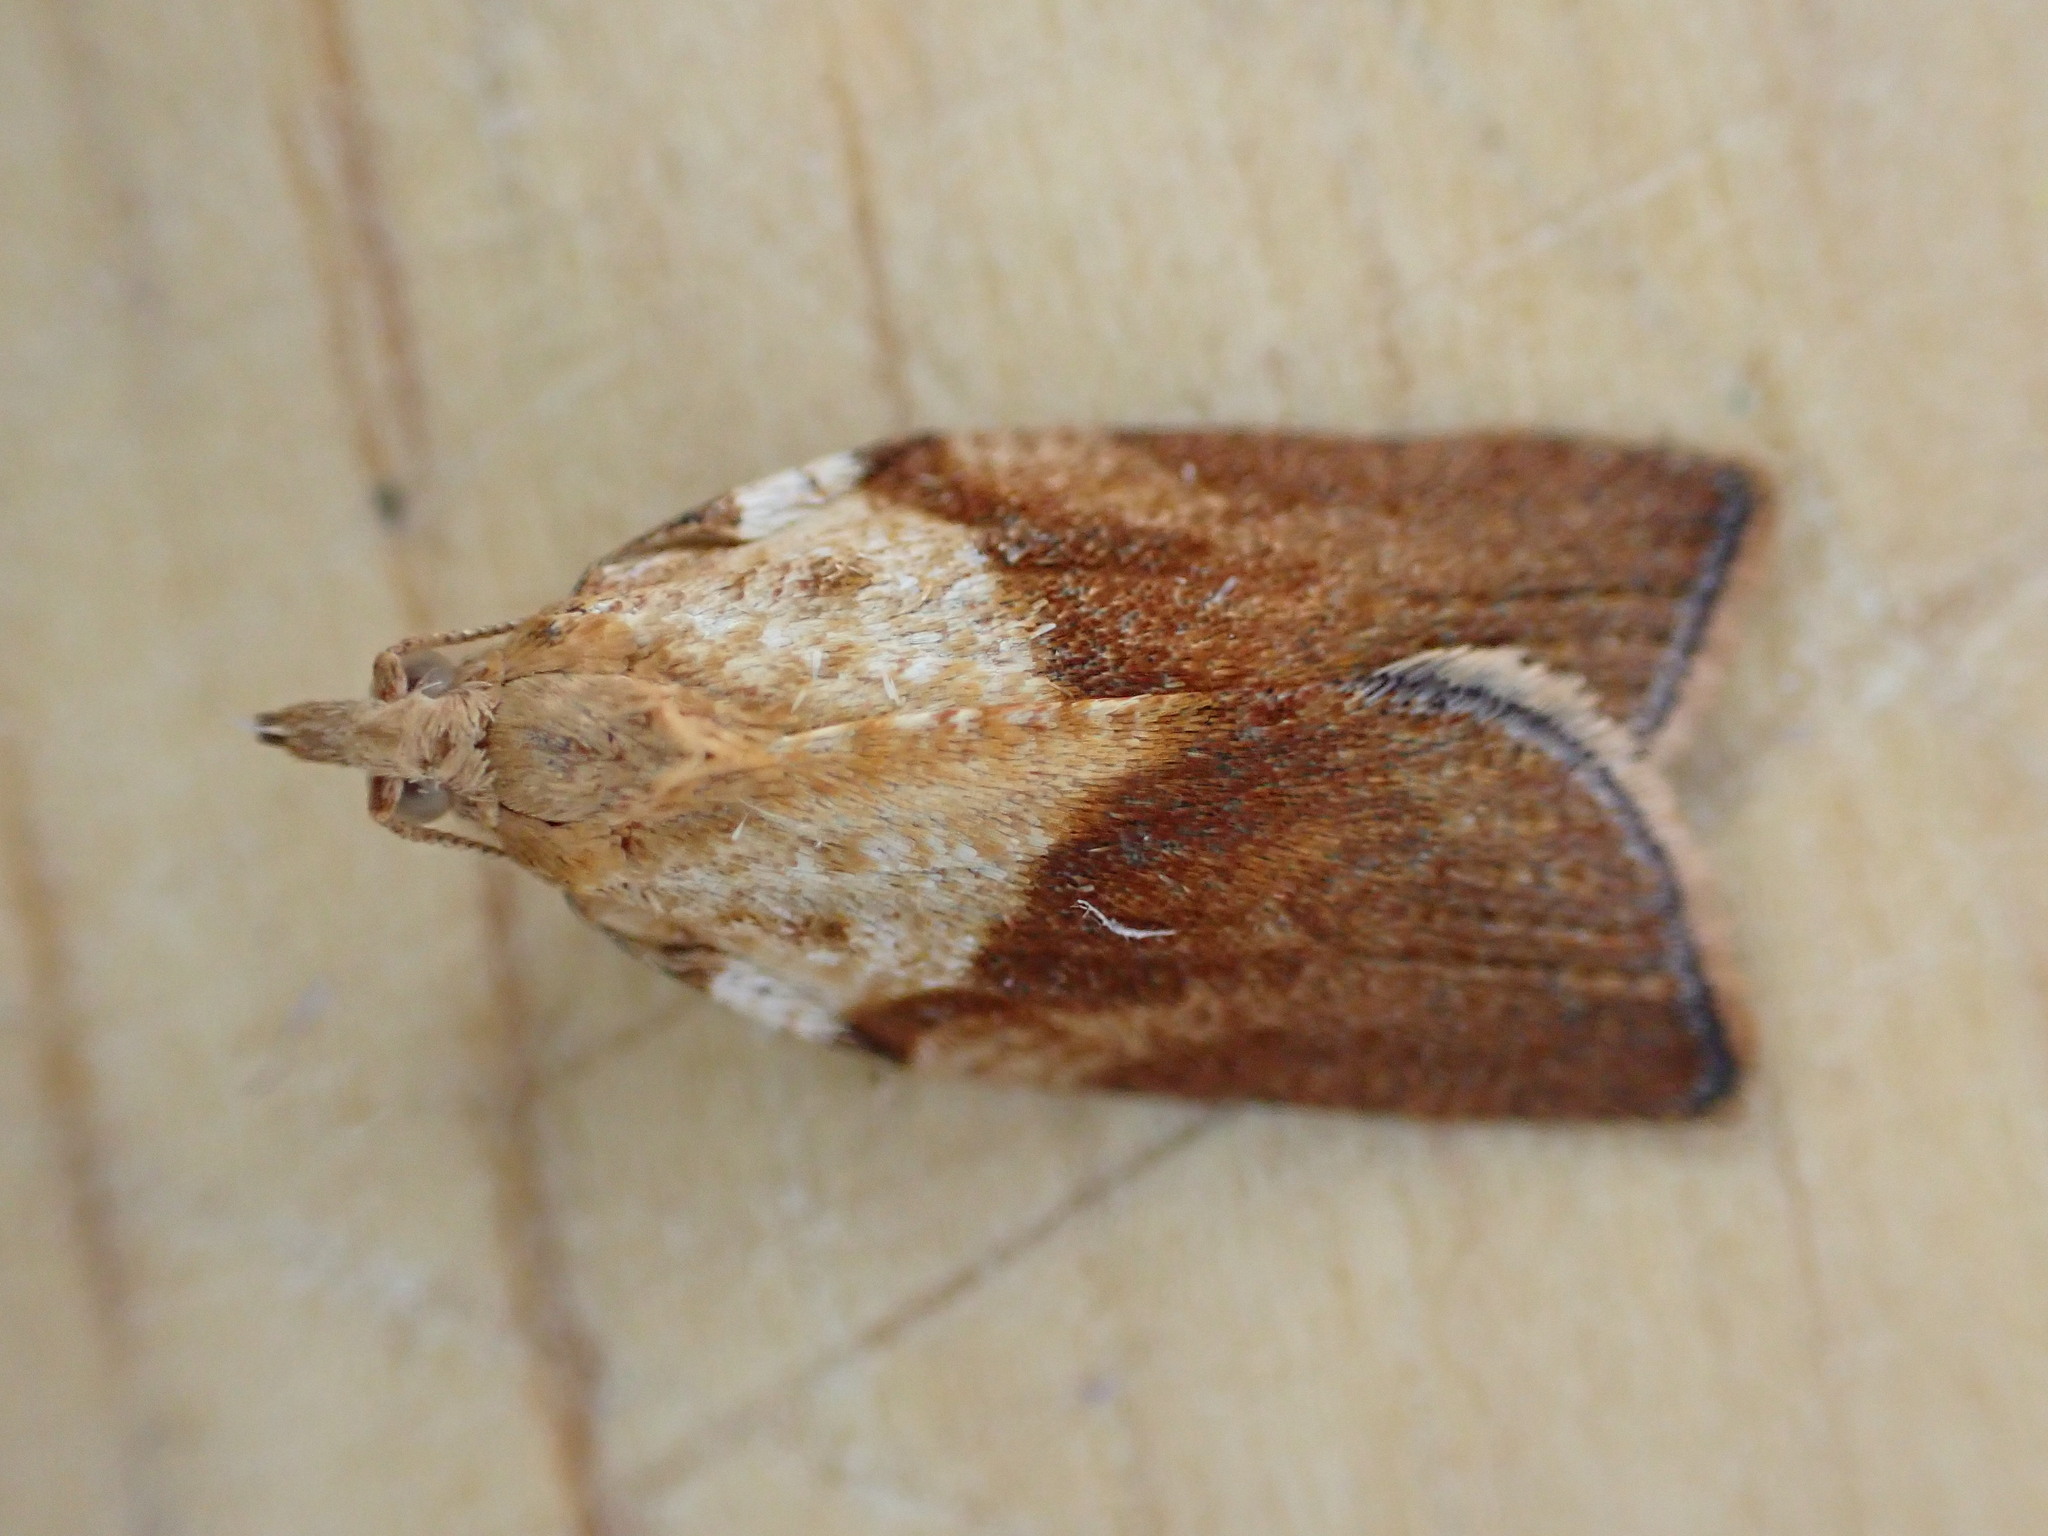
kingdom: Animalia
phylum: Arthropoda
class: Insecta
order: Lepidoptera
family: Tortricidae
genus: Epiphyas
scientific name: Epiphyas postvittana
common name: Light brown apple moth
